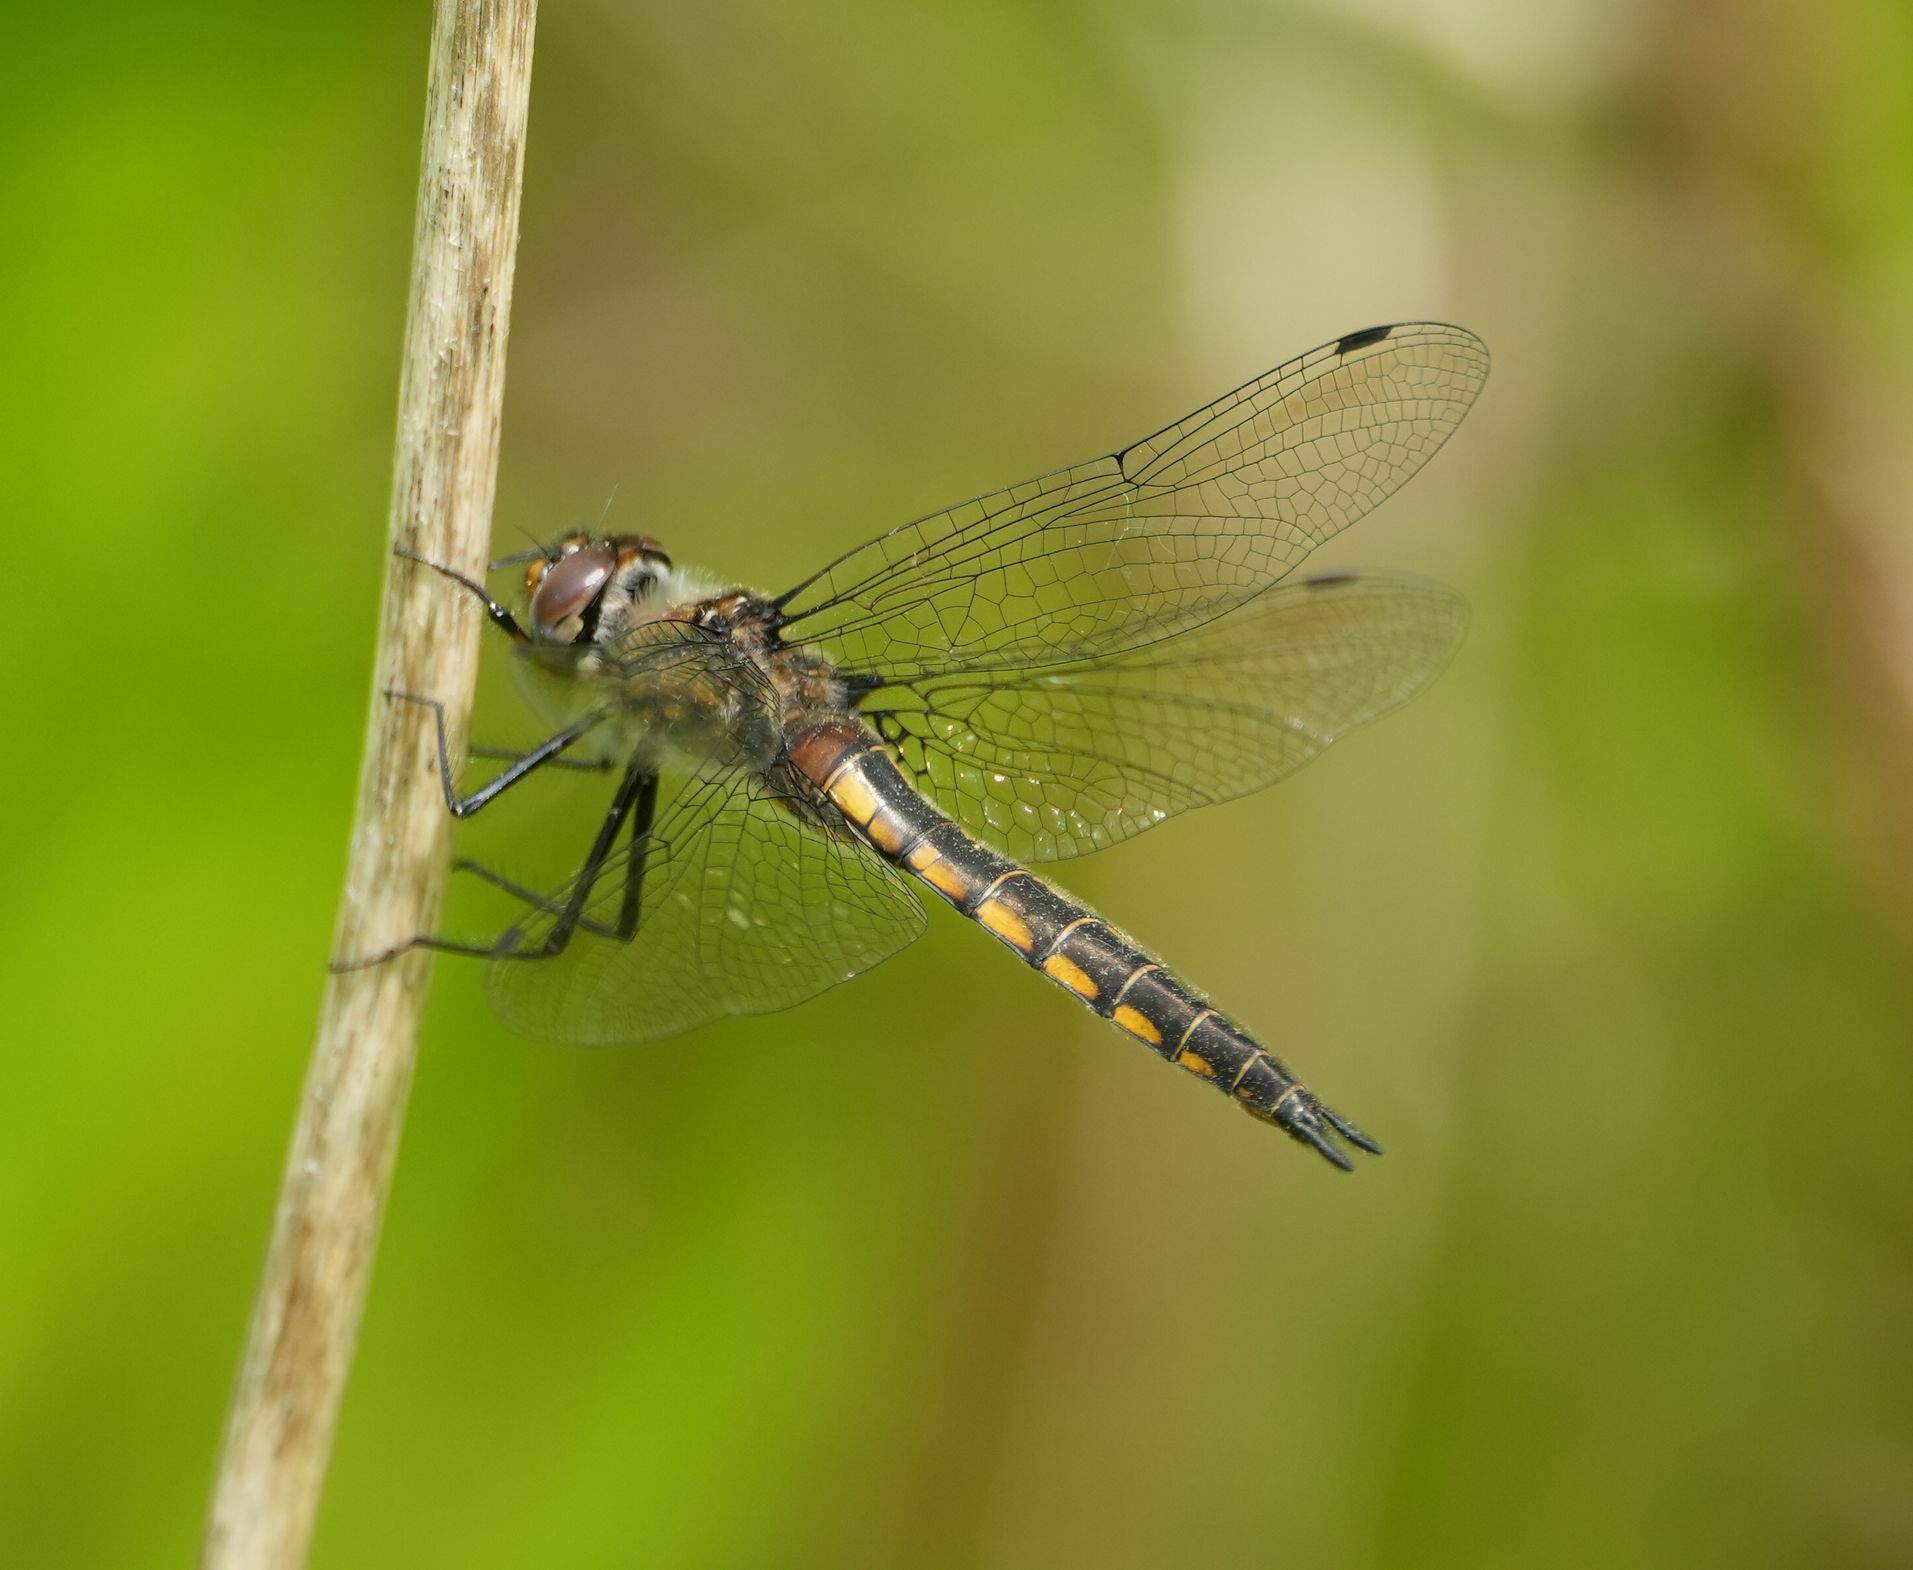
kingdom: Animalia
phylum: Arthropoda
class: Insecta
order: Odonata
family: Corduliidae
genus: Epitheca
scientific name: Epitheca spinigera
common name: Spiny baskettail
